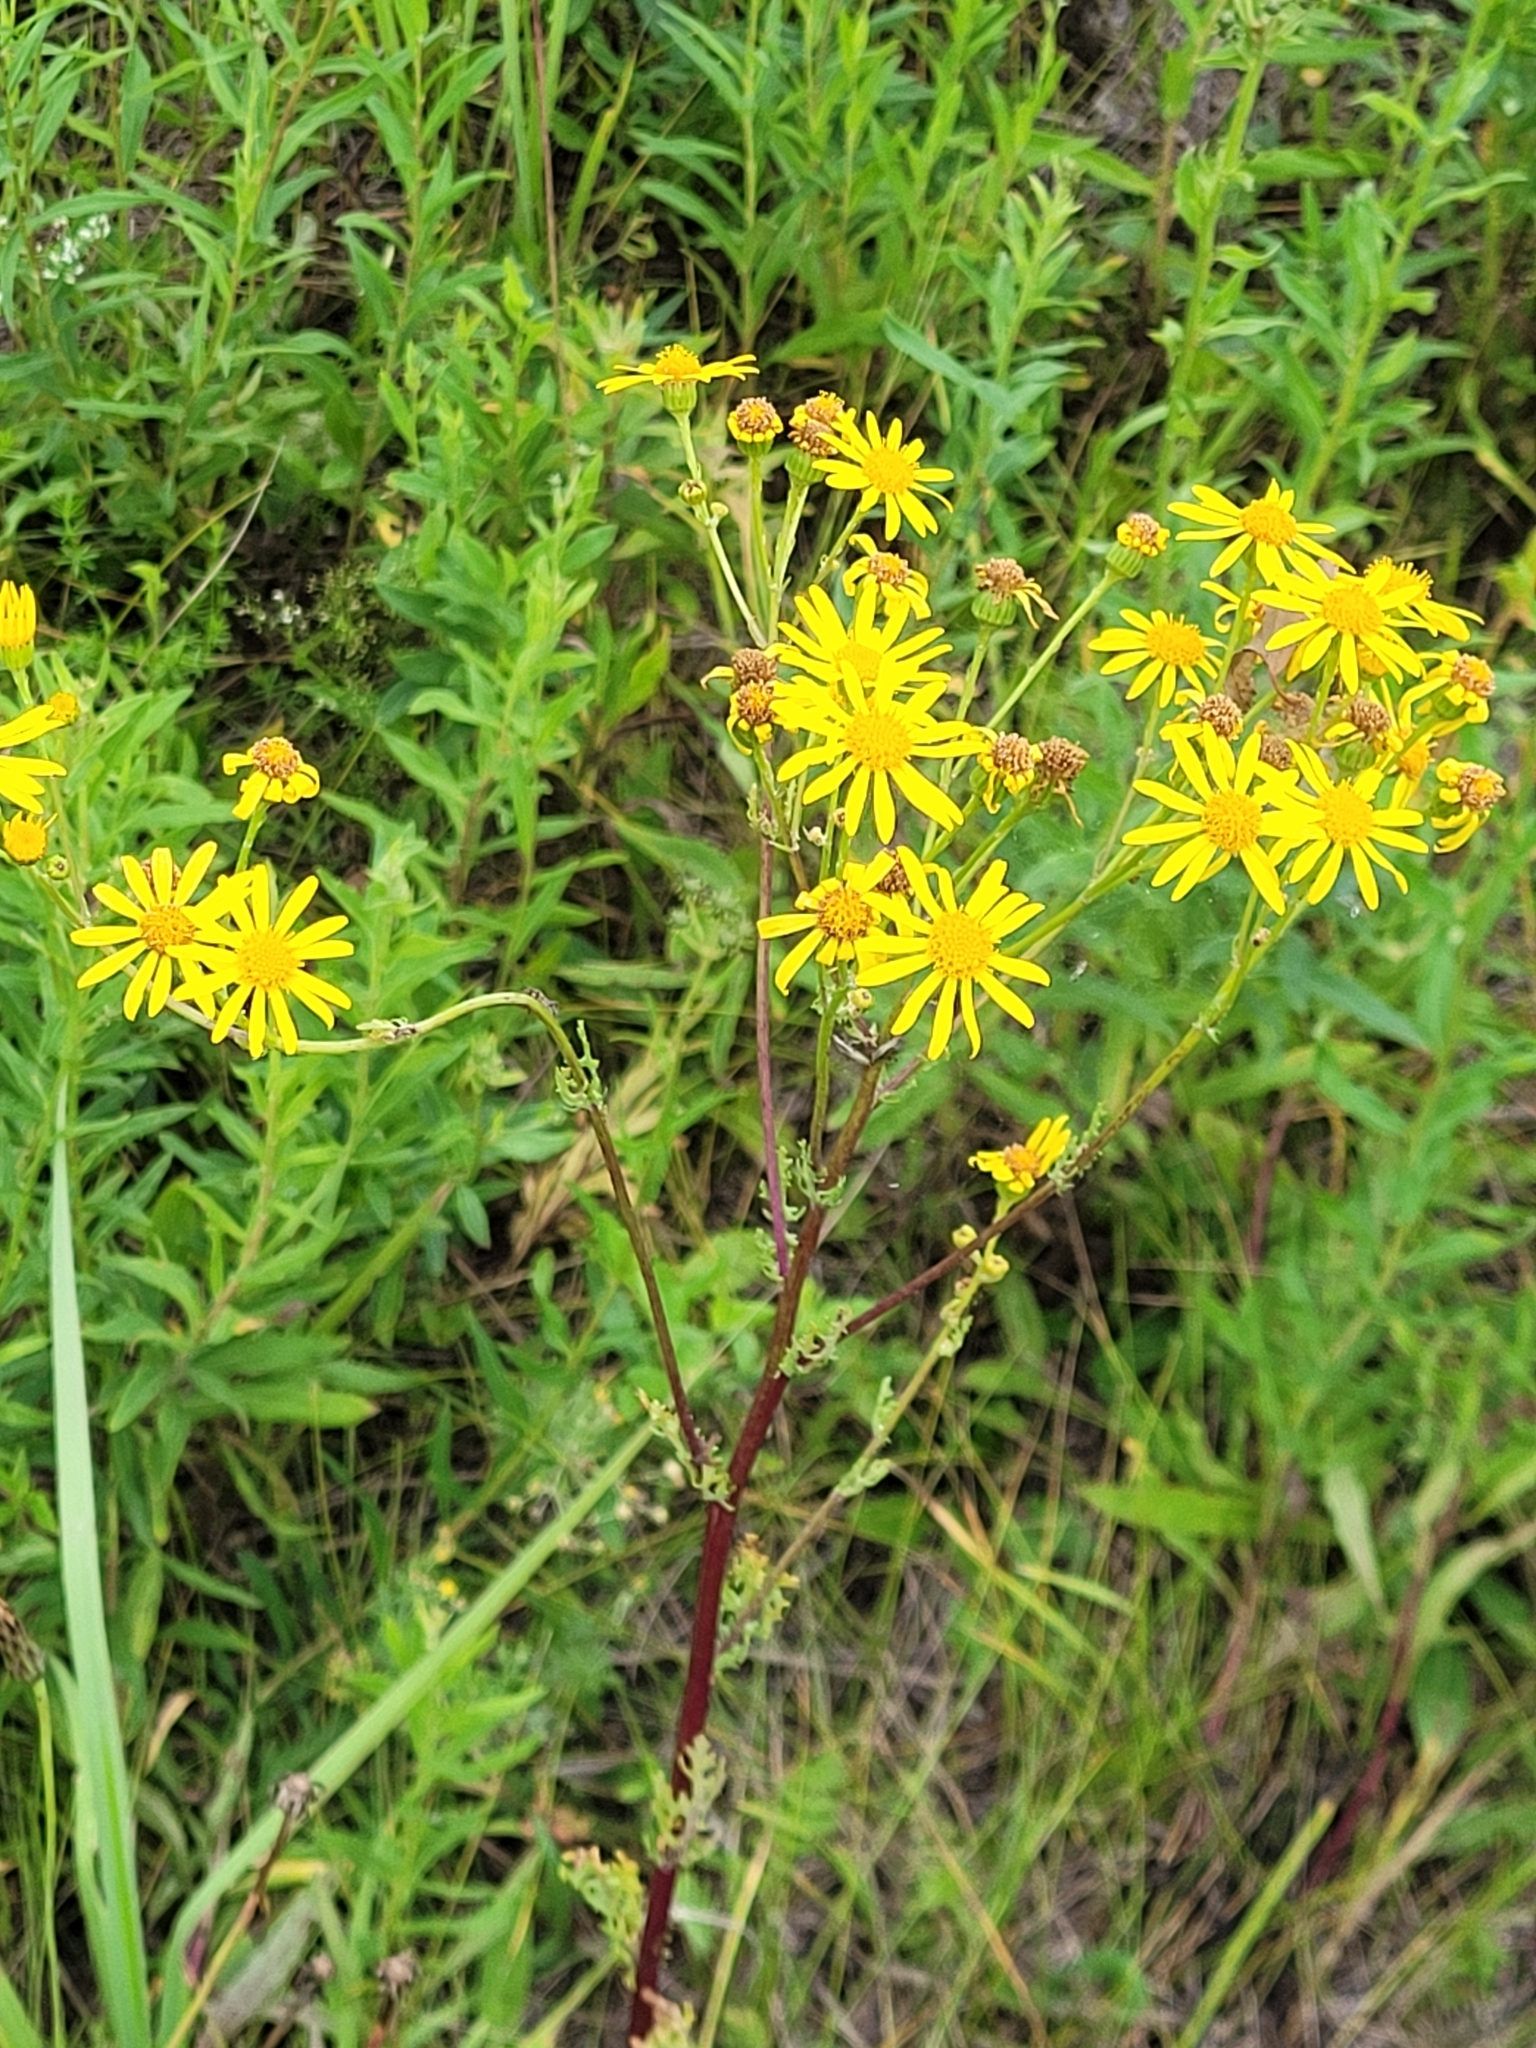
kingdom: Plantae
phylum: Tracheophyta
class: Magnoliopsida
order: Asterales
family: Asteraceae
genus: Jacobaea
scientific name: Jacobaea vulgaris
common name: Stinking willie
